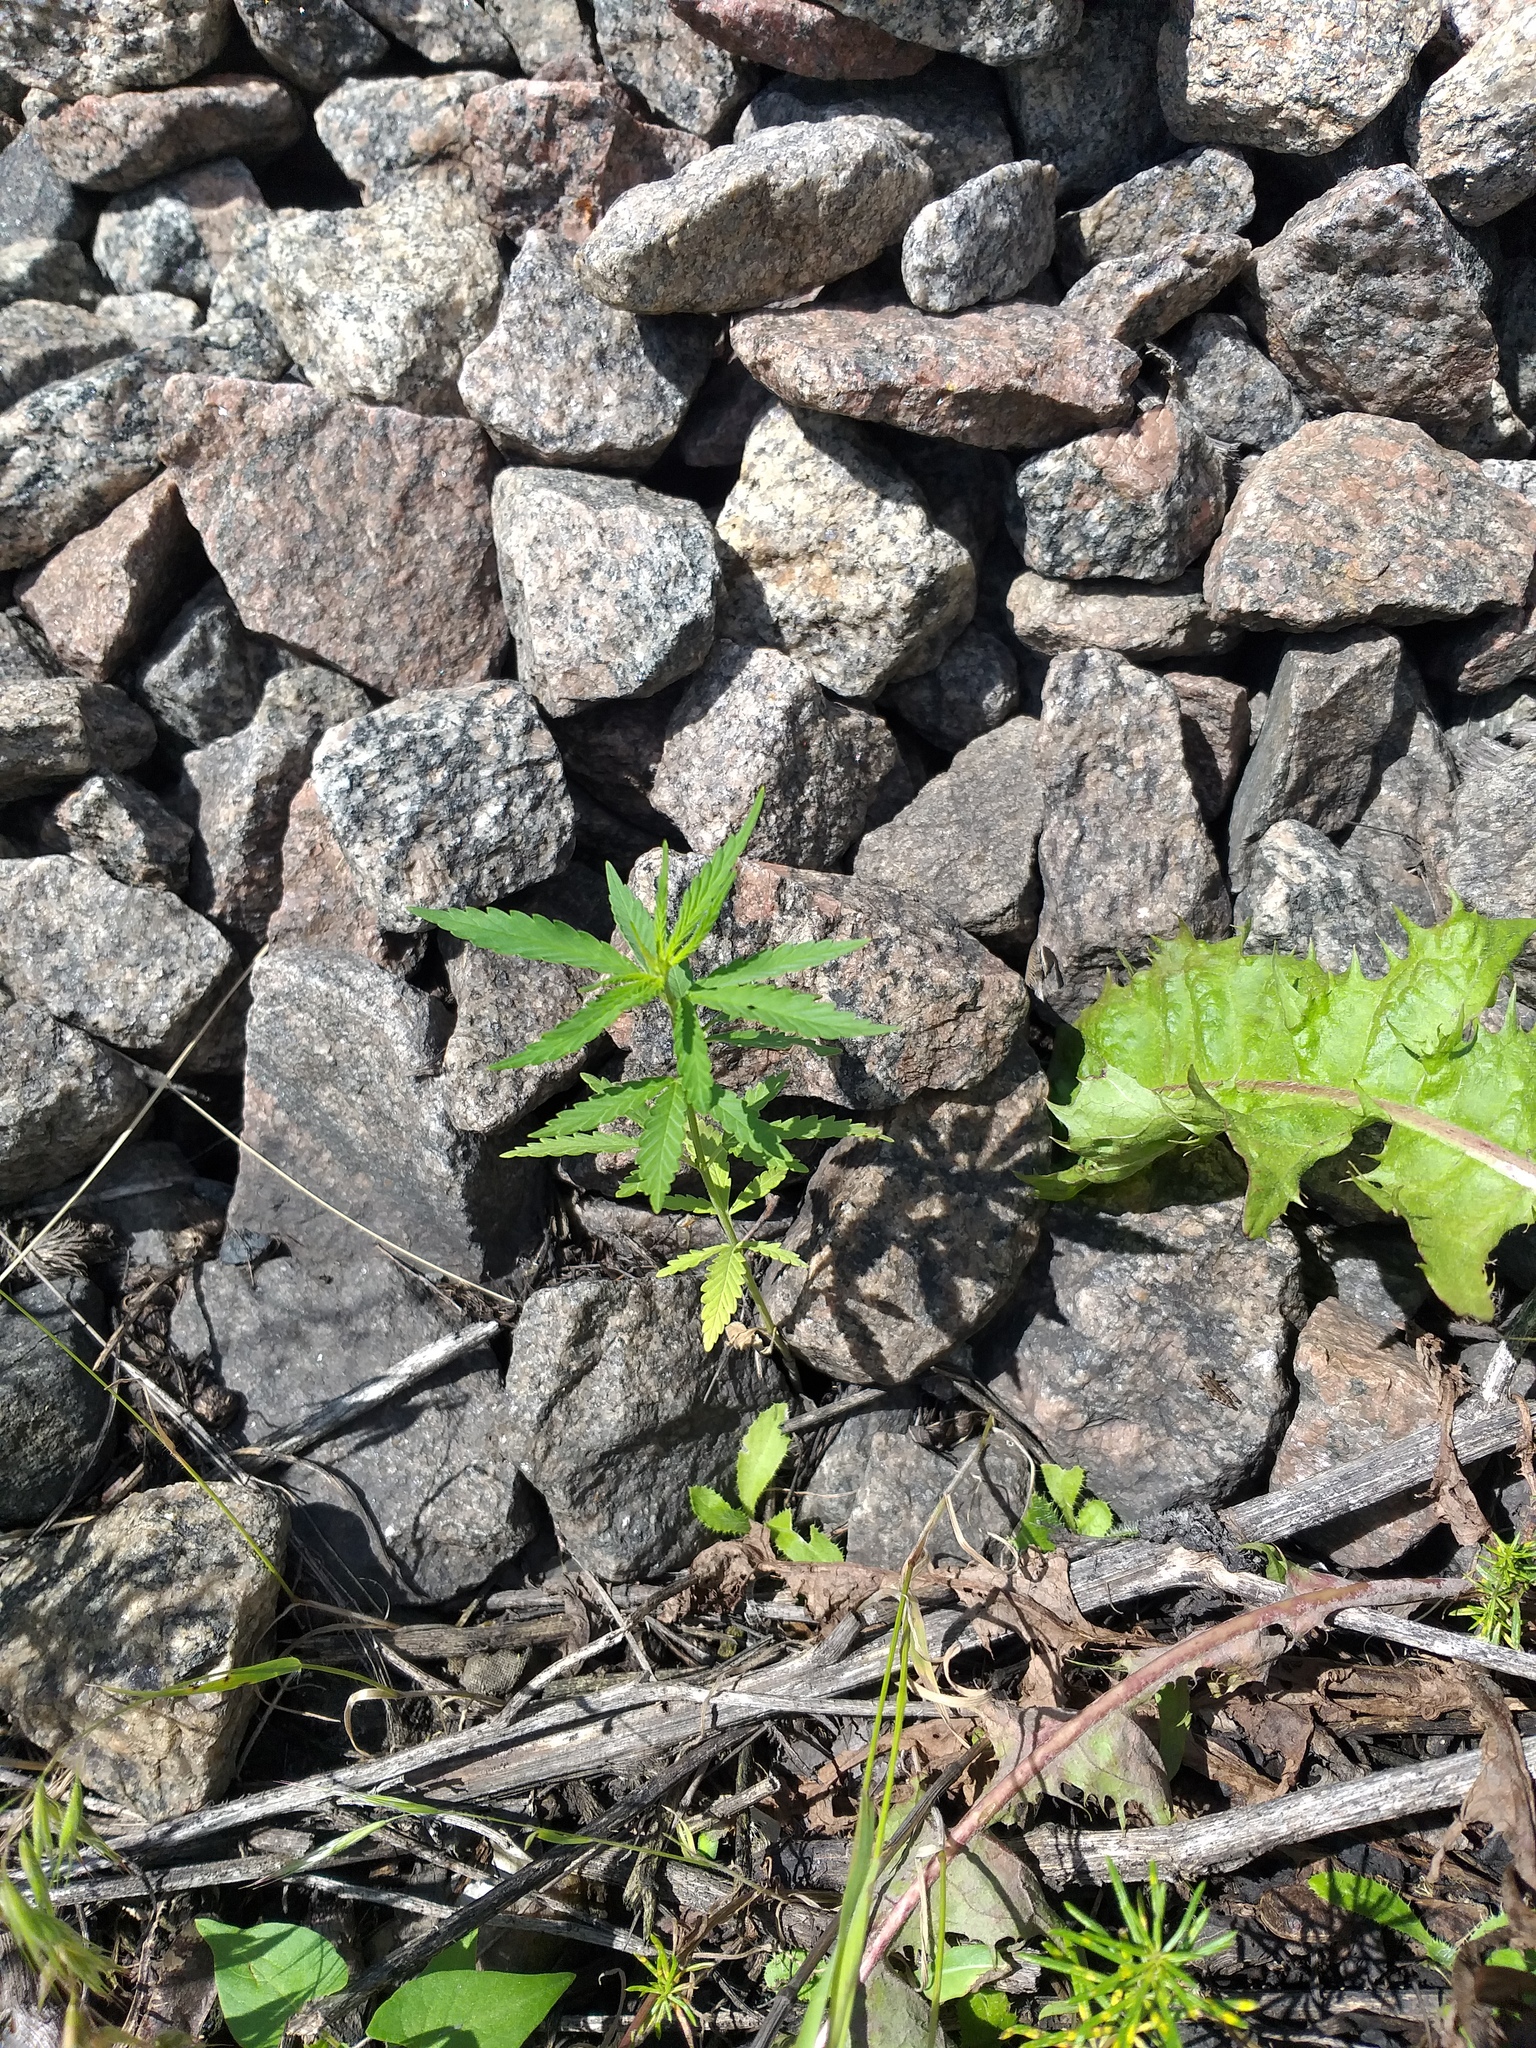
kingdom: Plantae
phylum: Tracheophyta
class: Magnoliopsida
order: Rosales
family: Cannabaceae
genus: Cannabis
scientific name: Cannabis sativa
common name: Hemp
